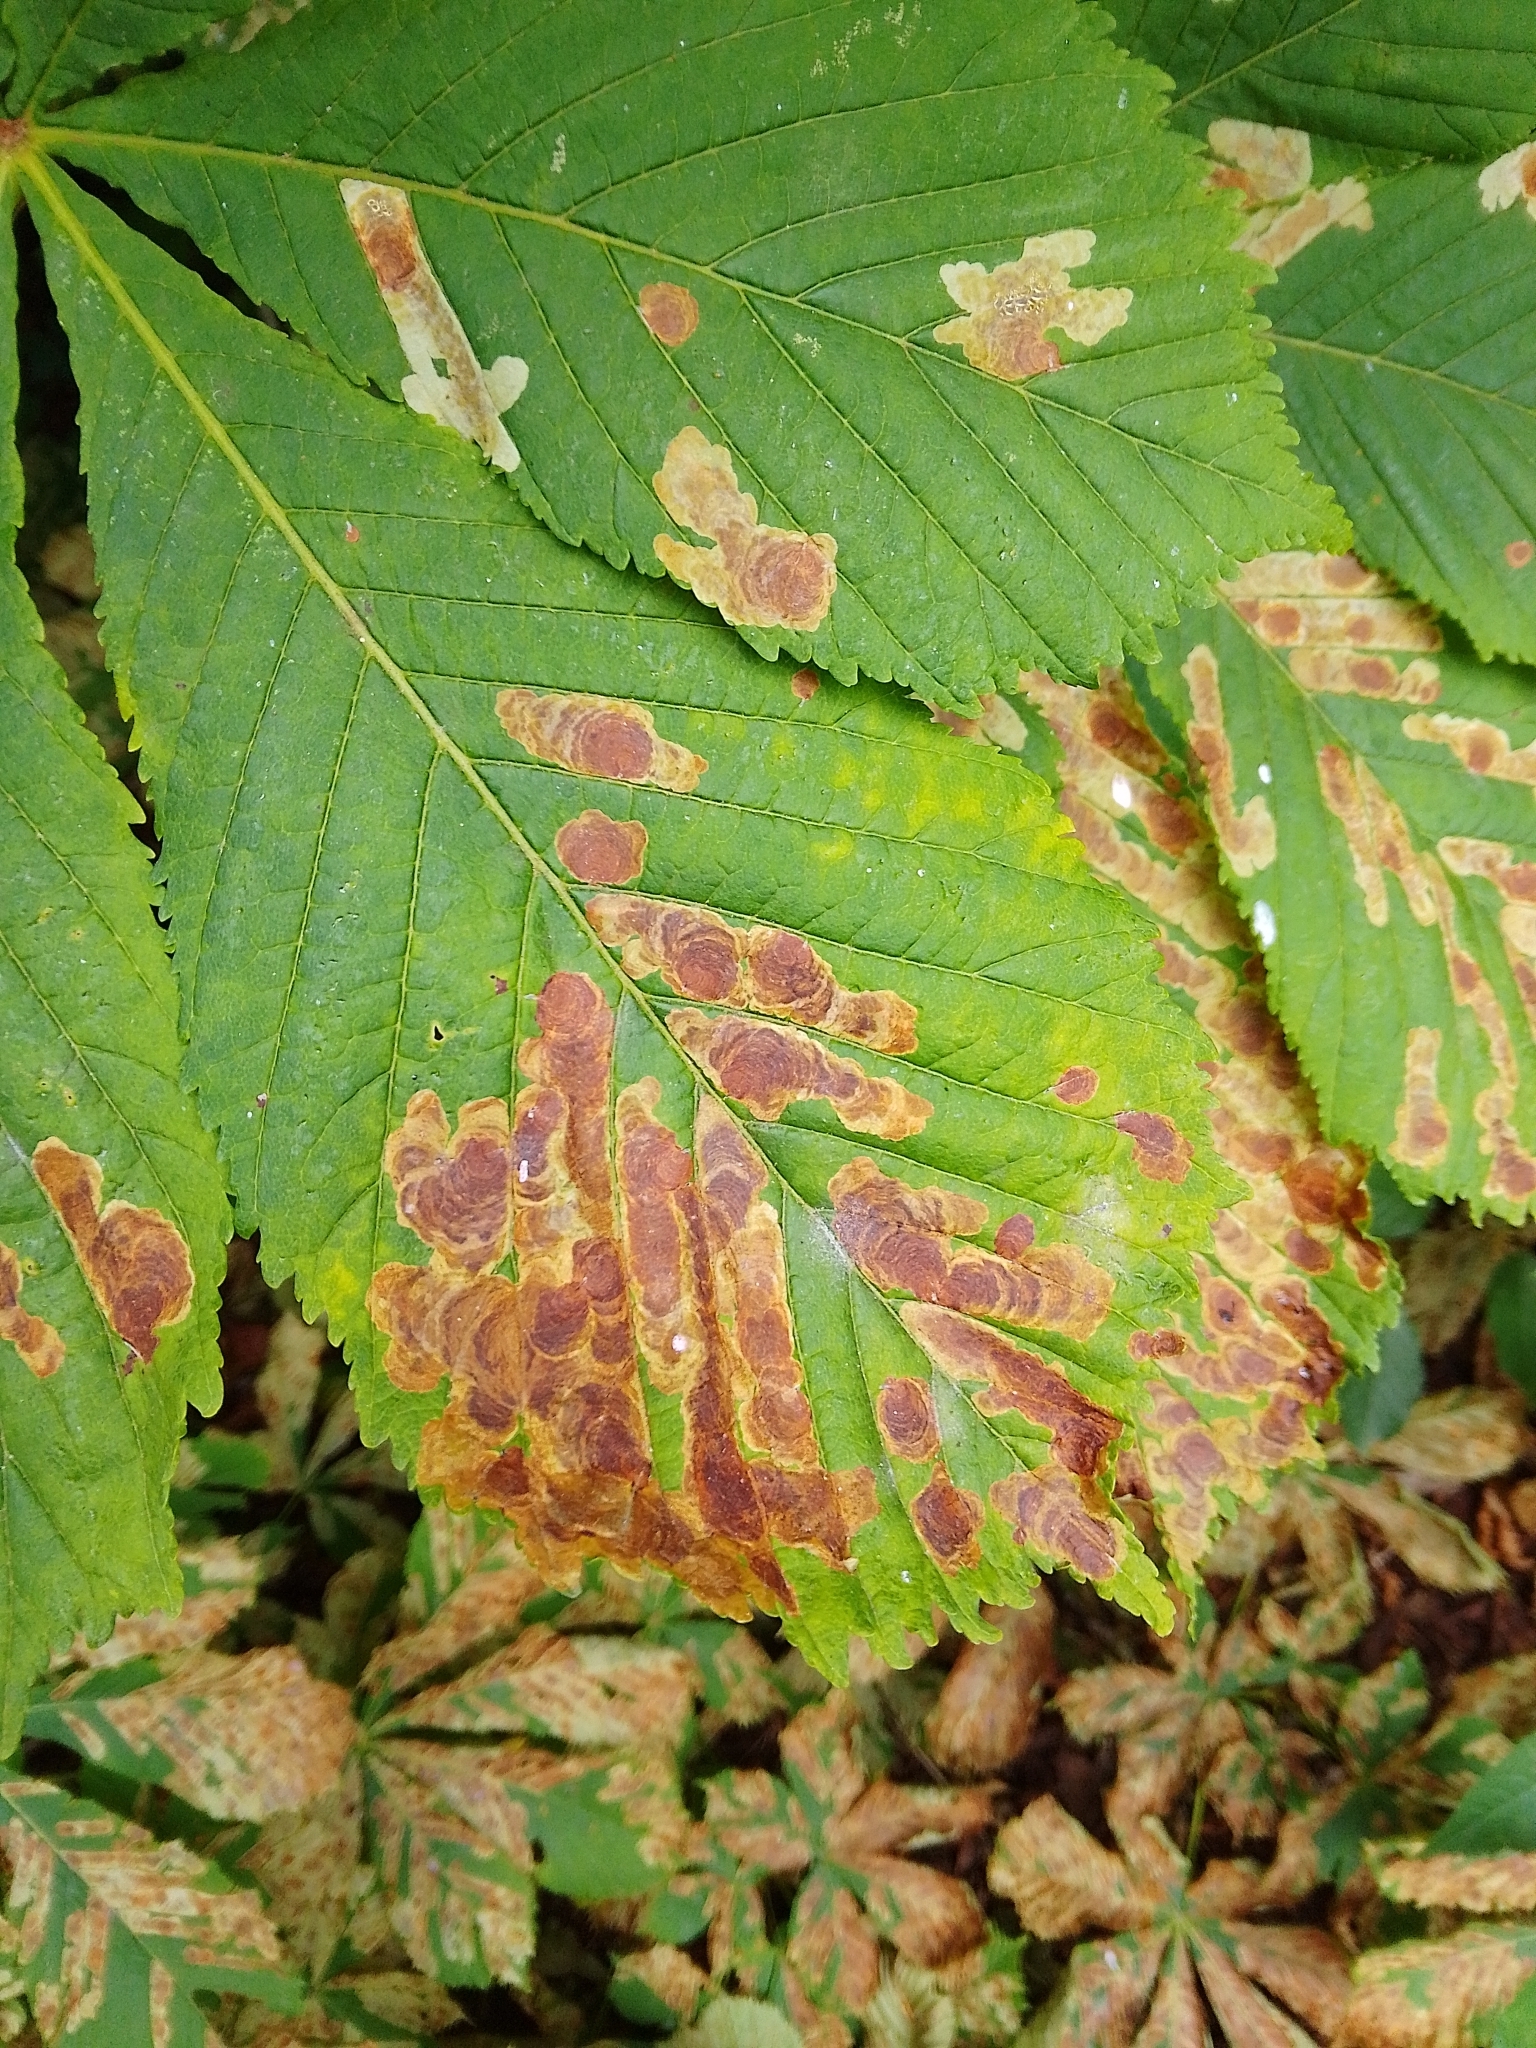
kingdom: Animalia
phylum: Arthropoda
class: Insecta
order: Lepidoptera
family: Gracillariidae
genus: Cameraria
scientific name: Cameraria ohridella
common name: Horse-chestnut leaf-miner
